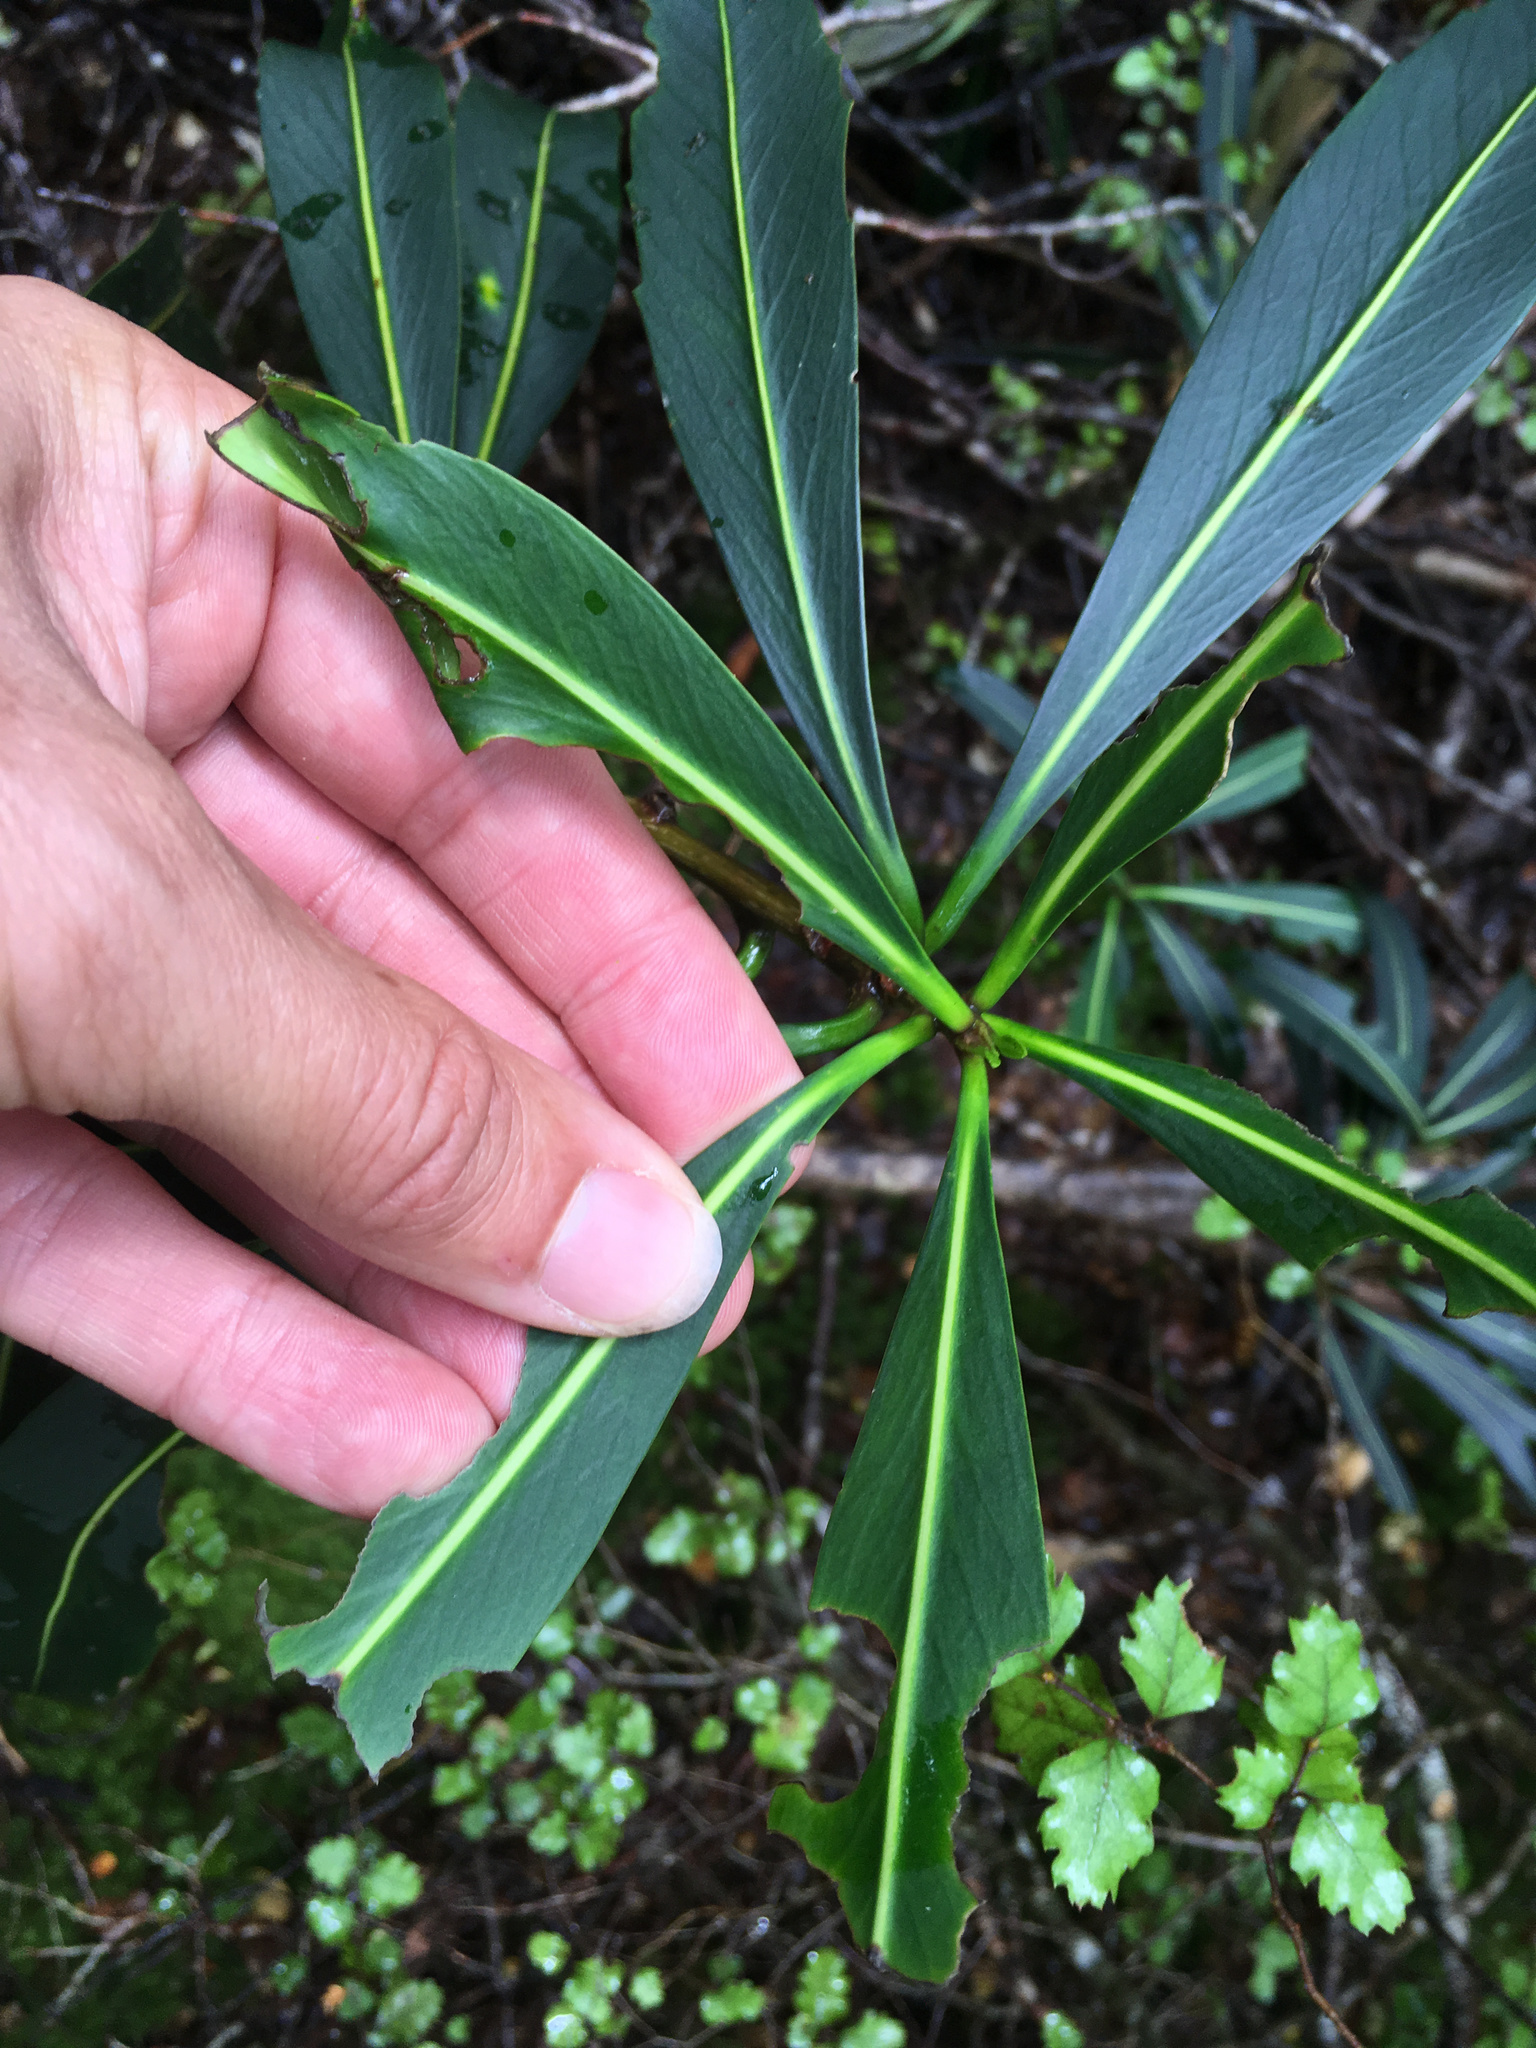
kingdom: Plantae
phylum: Tracheophyta
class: Magnoliopsida
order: Apiales
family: Araliaceae
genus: Pseudopanax
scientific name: Pseudopanax crassifolius
